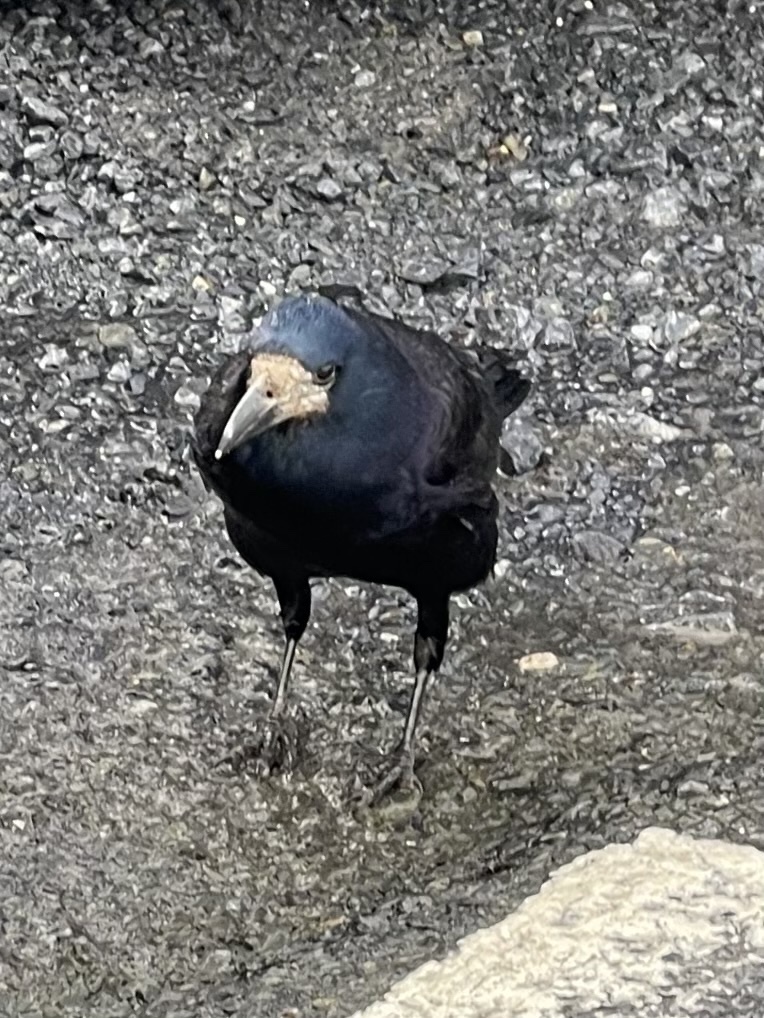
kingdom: Animalia
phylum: Chordata
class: Aves
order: Passeriformes
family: Corvidae
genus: Corvus
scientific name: Corvus frugilegus
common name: Rook
